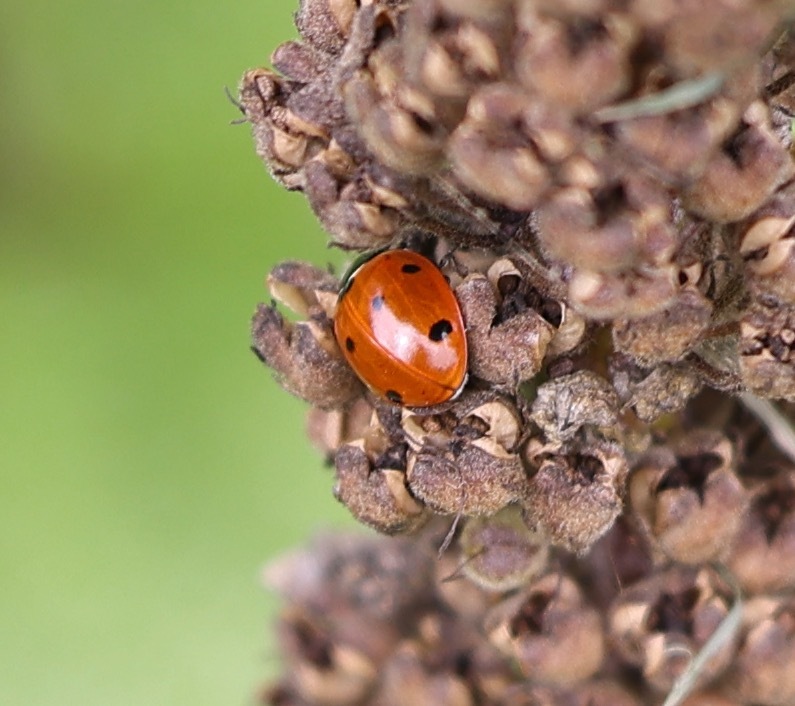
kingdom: Animalia
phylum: Arthropoda
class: Insecta
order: Coleoptera
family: Coccinellidae
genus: Coccinella
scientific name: Coccinella septempunctata
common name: Sevenspotted lady beetle
